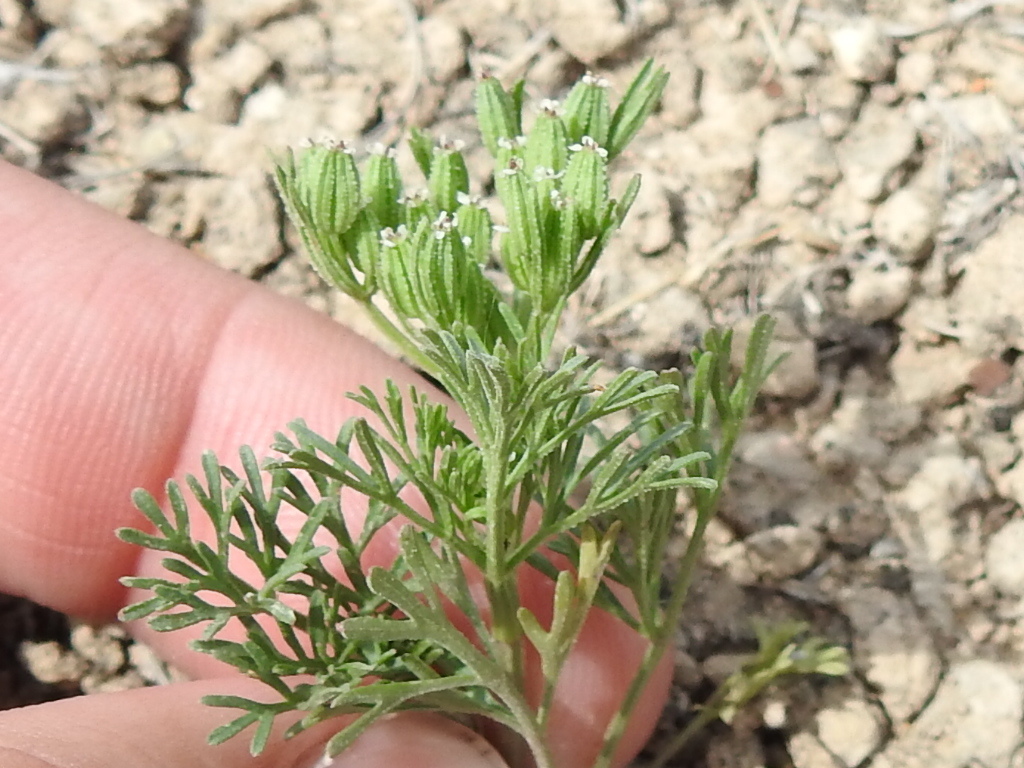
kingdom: Plantae
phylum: Tracheophyta
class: Magnoliopsida
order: Apiales
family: Apiaceae
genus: Ammoselinum
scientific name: Ammoselinum popei
